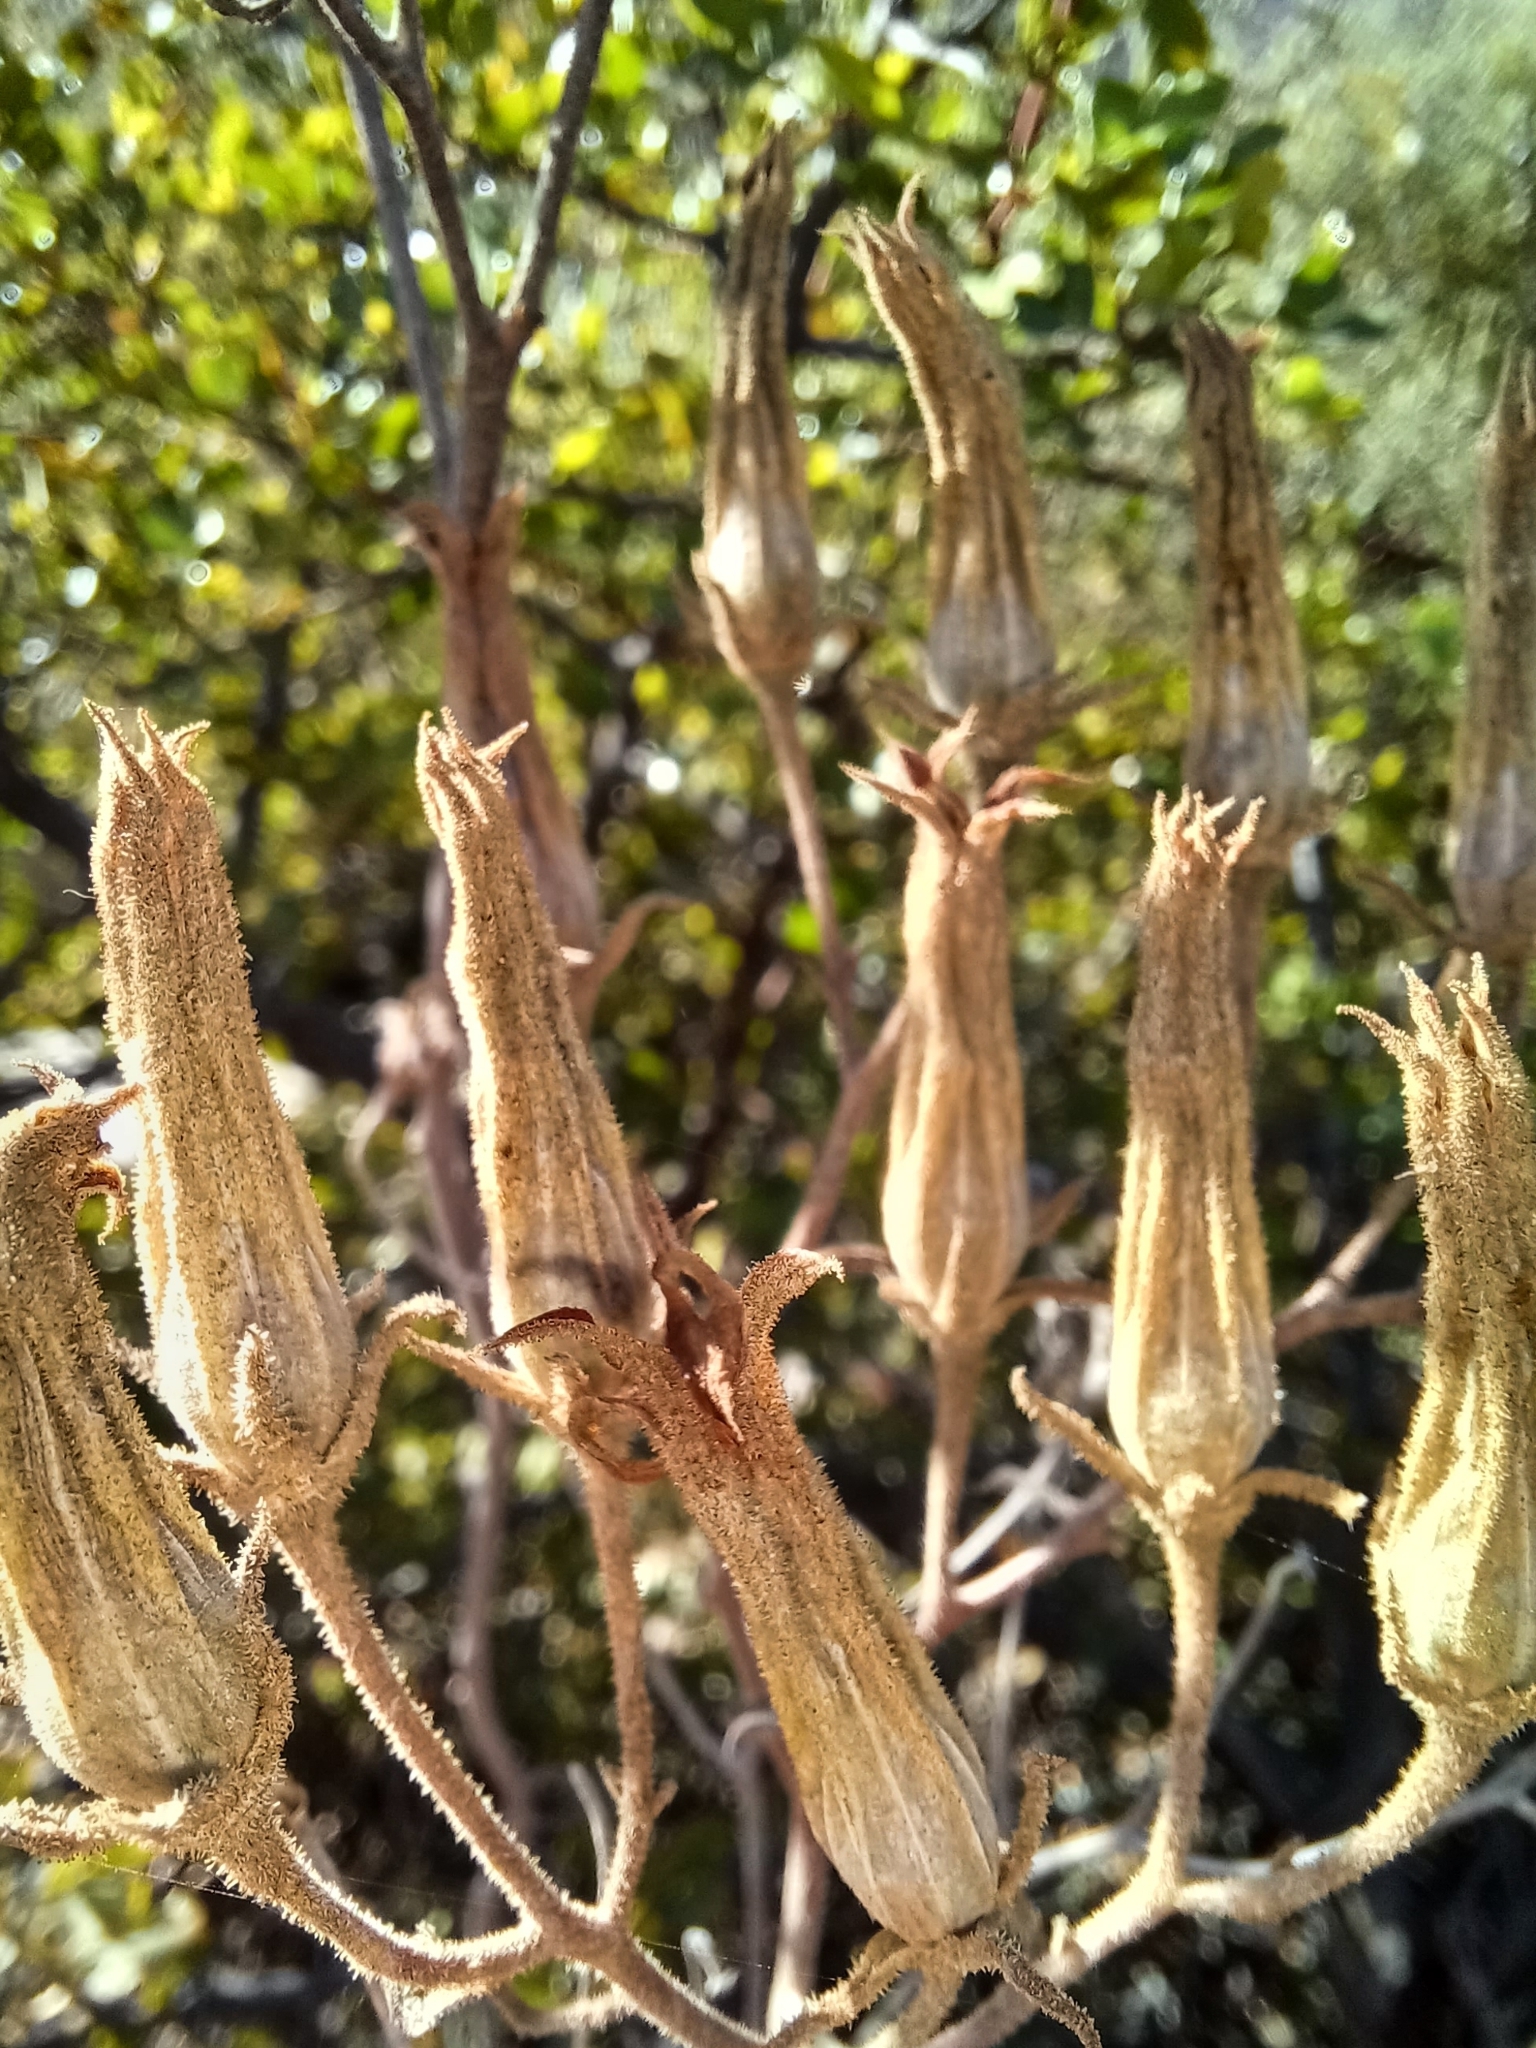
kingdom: Plantae
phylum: Tracheophyta
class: Magnoliopsida
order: Saxifragales
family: Crassulaceae
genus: Tylecodon
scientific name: Tylecodon ventricosus
